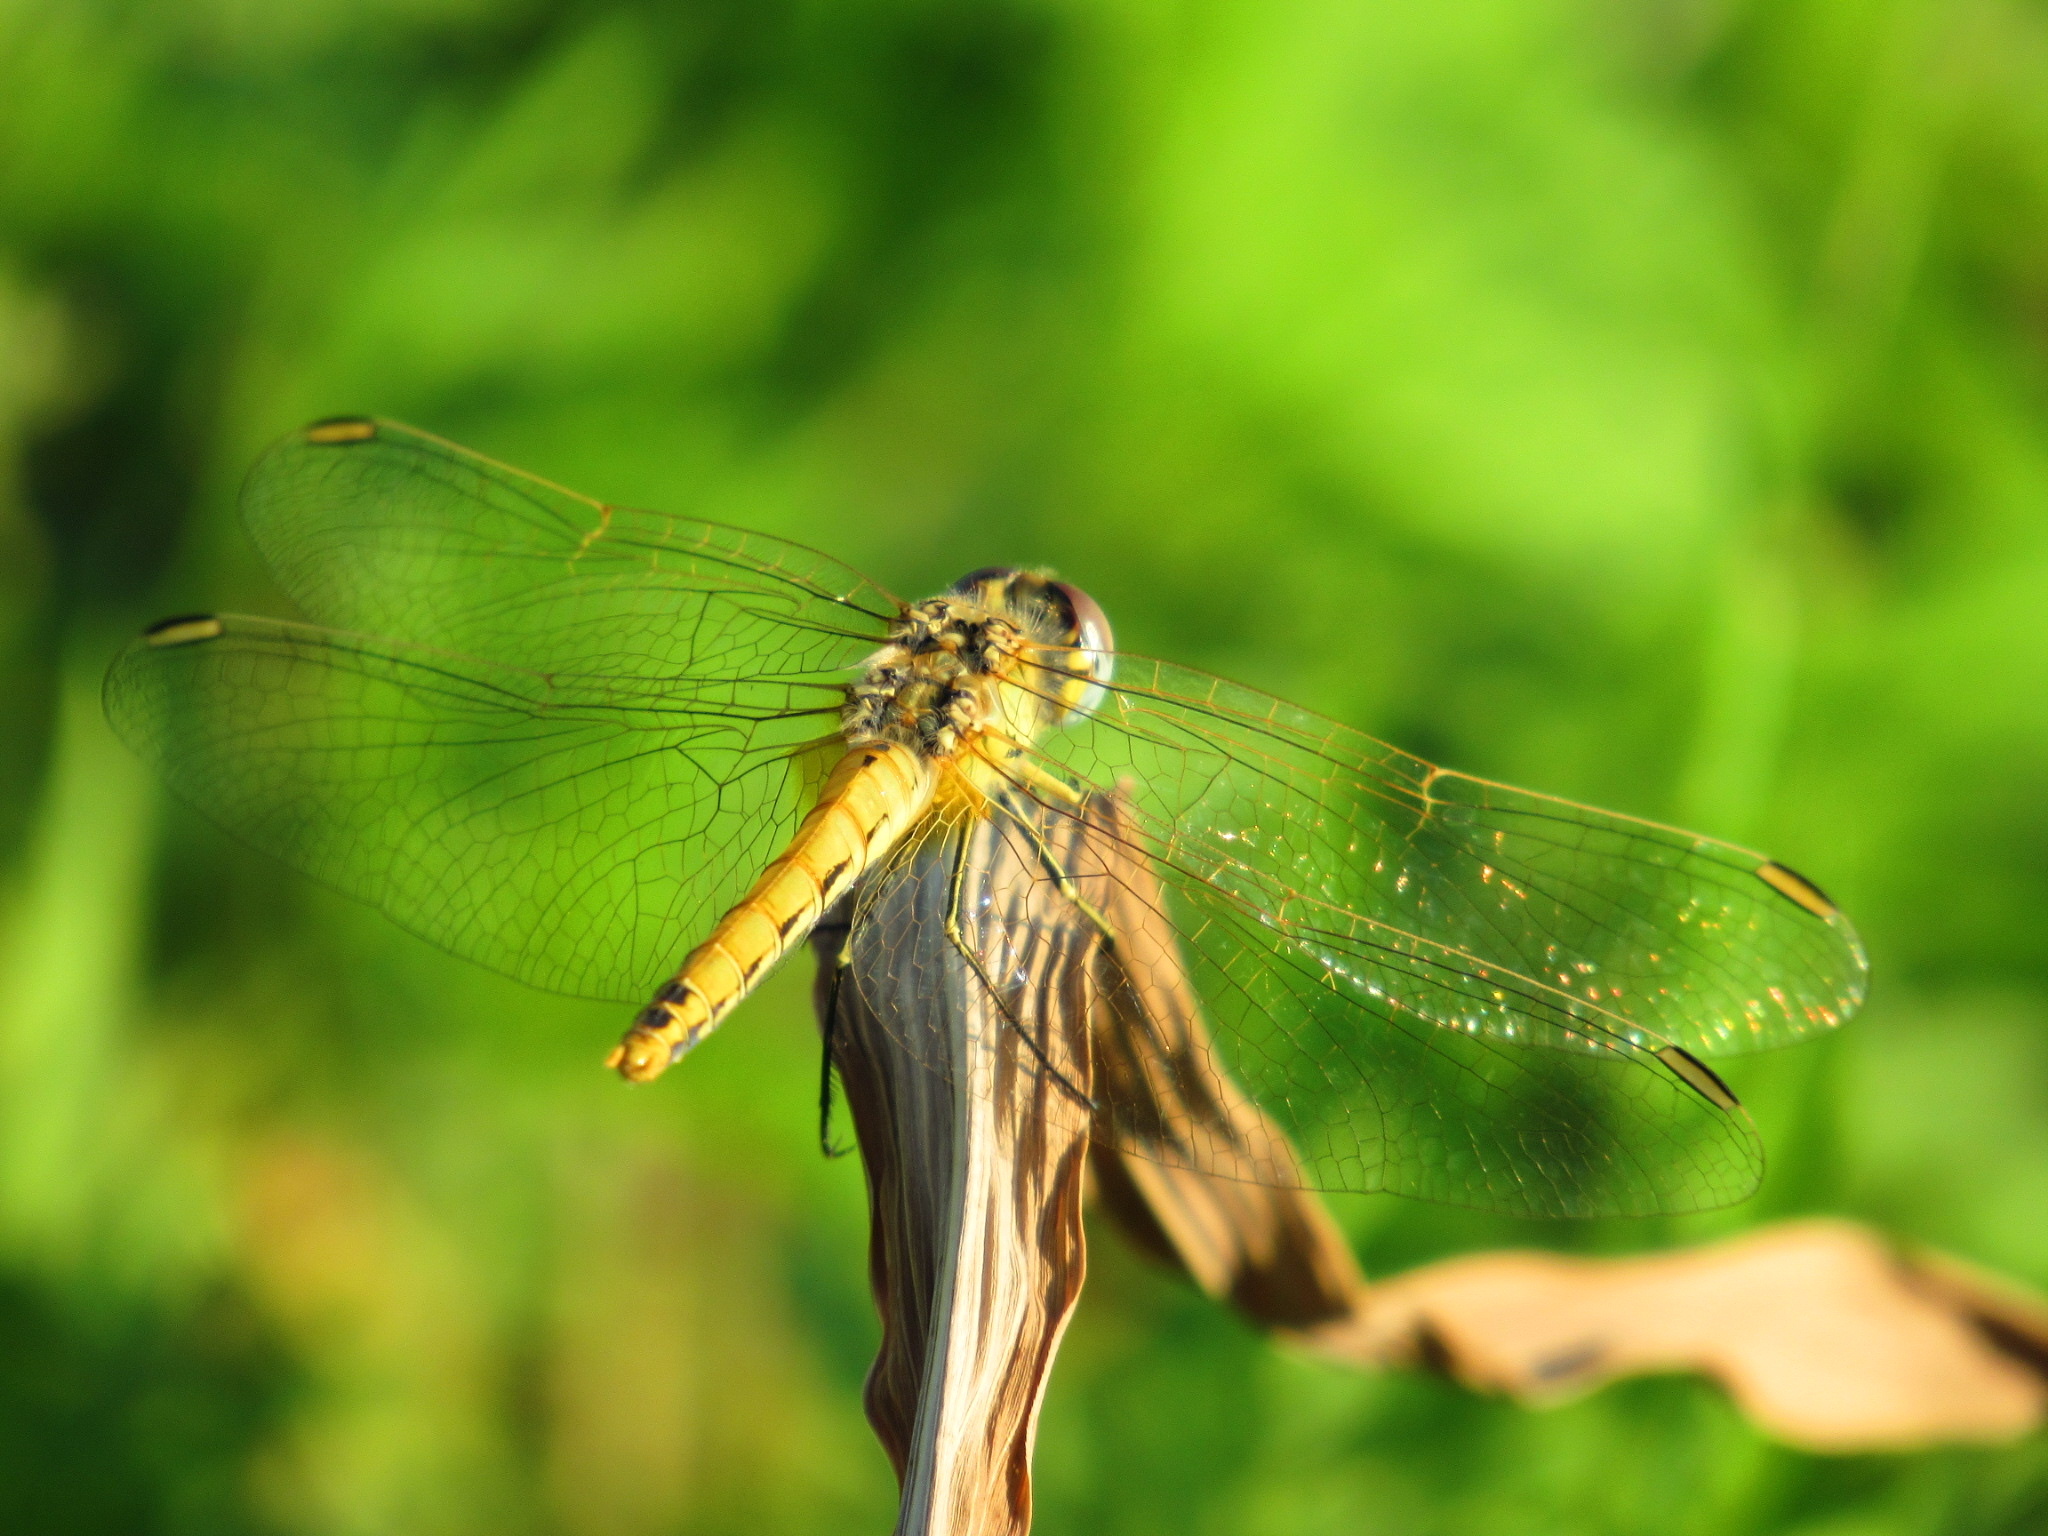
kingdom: Animalia
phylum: Arthropoda
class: Insecta
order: Odonata
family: Libellulidae
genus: Sympetrum
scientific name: Sympetrum fonscolombii
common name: Red-veined darter
